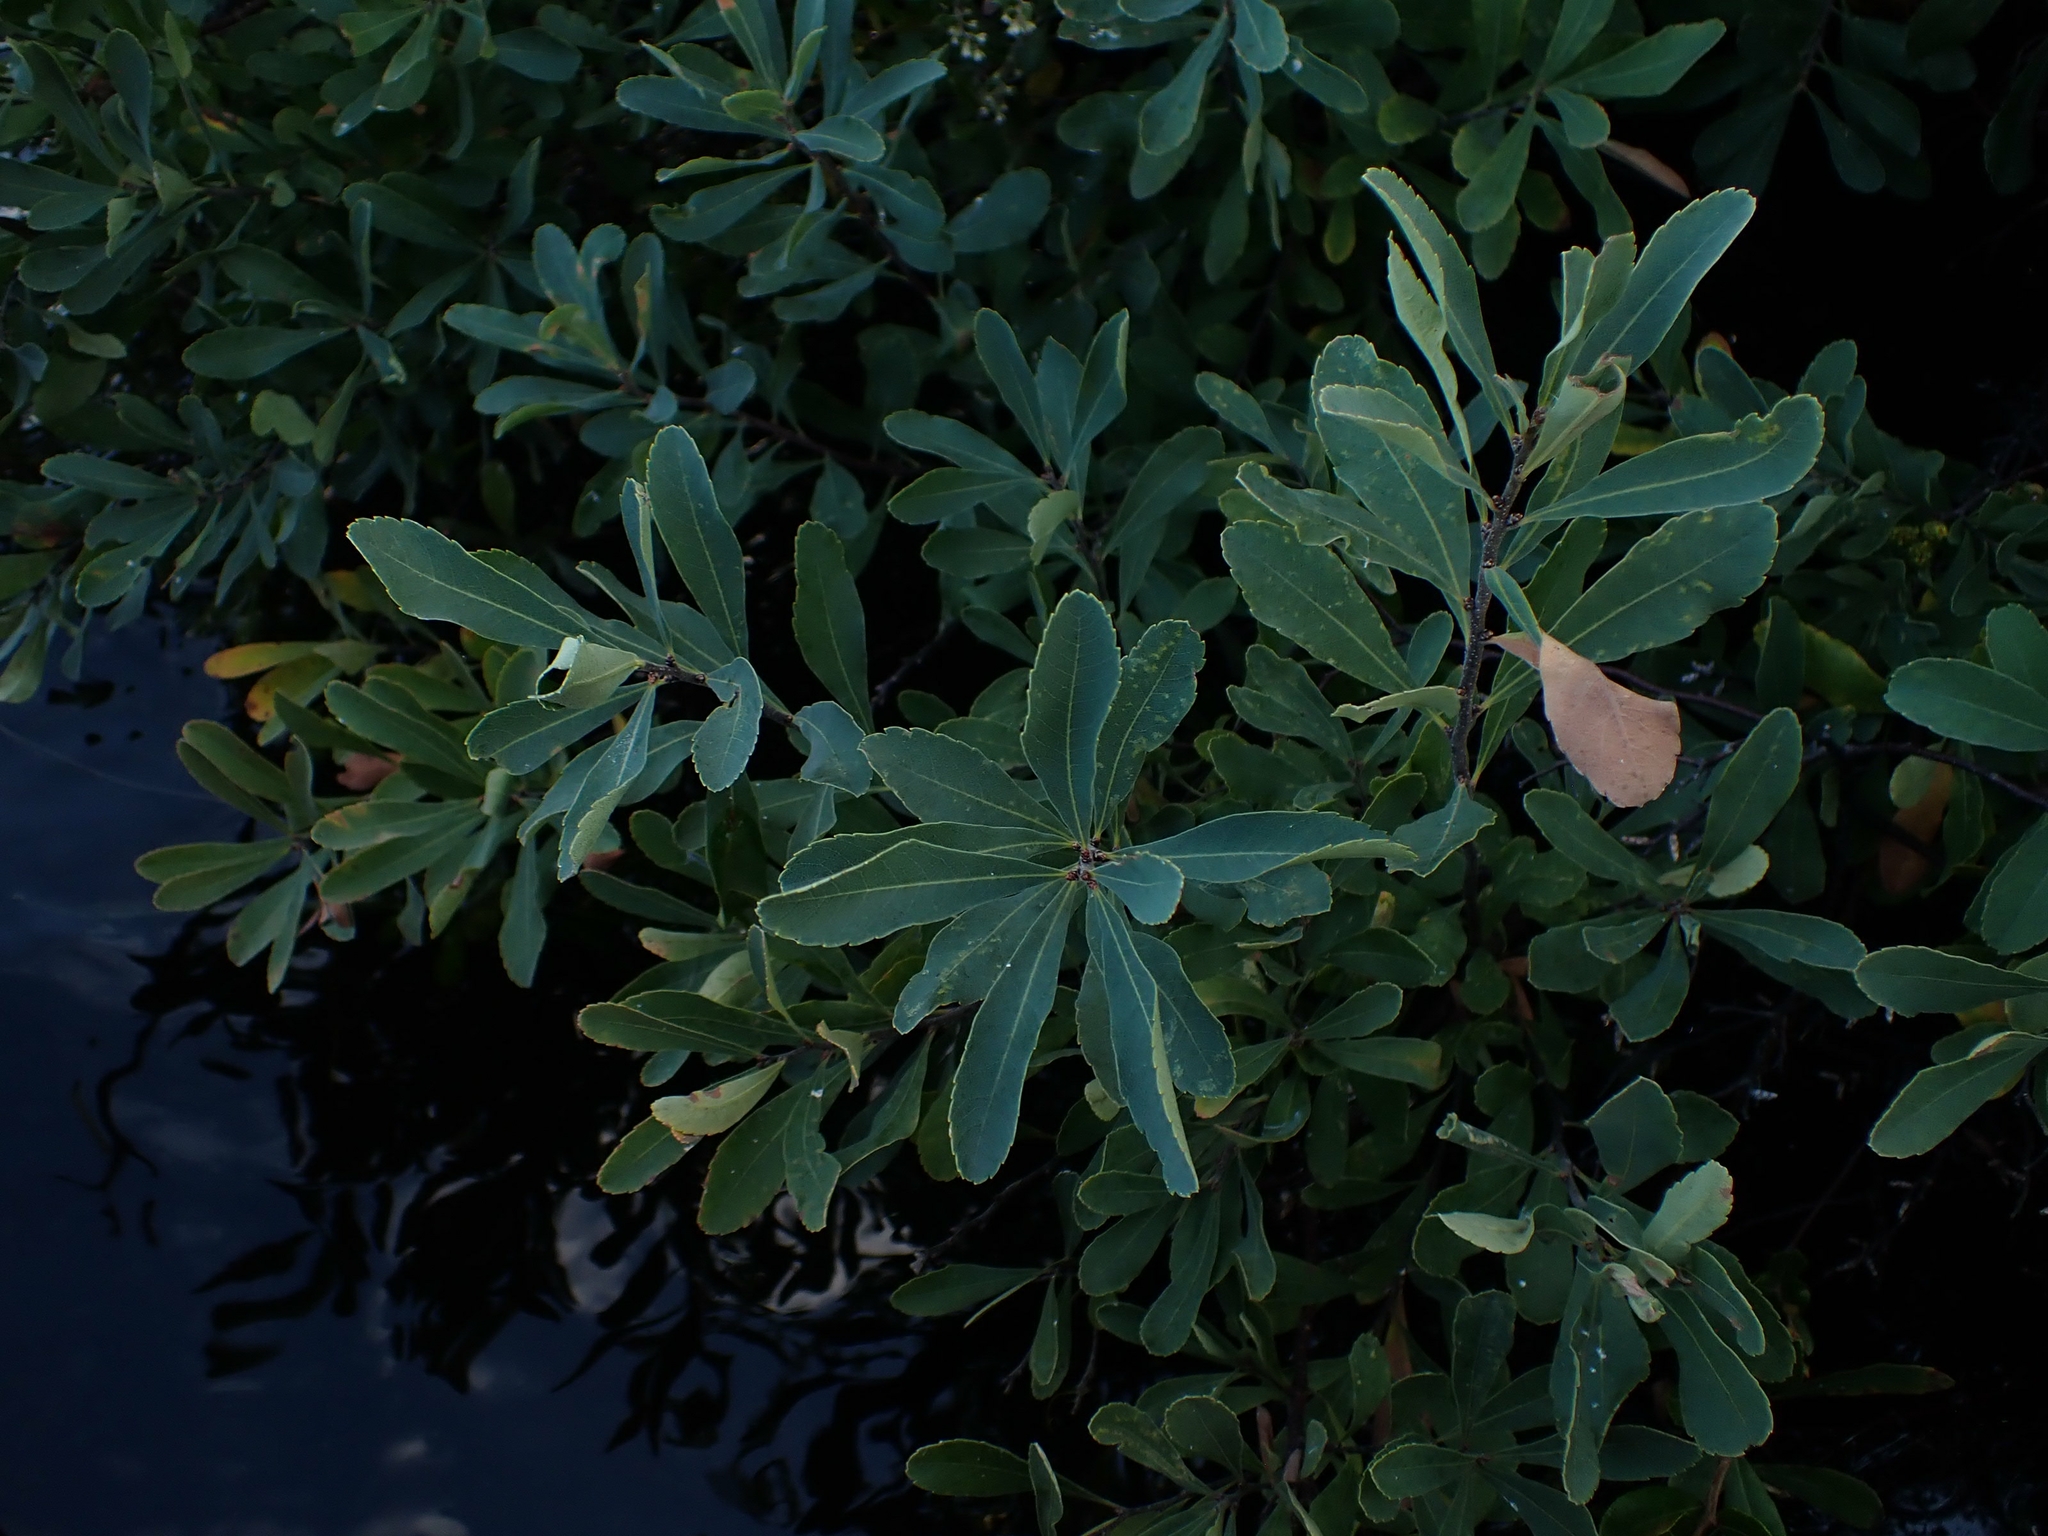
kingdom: Plantae
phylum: Tracheophyta
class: Magnoliopsida
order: Fagales
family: Myricaceae
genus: Myrica
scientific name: Myrica gale
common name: Sweet gale
